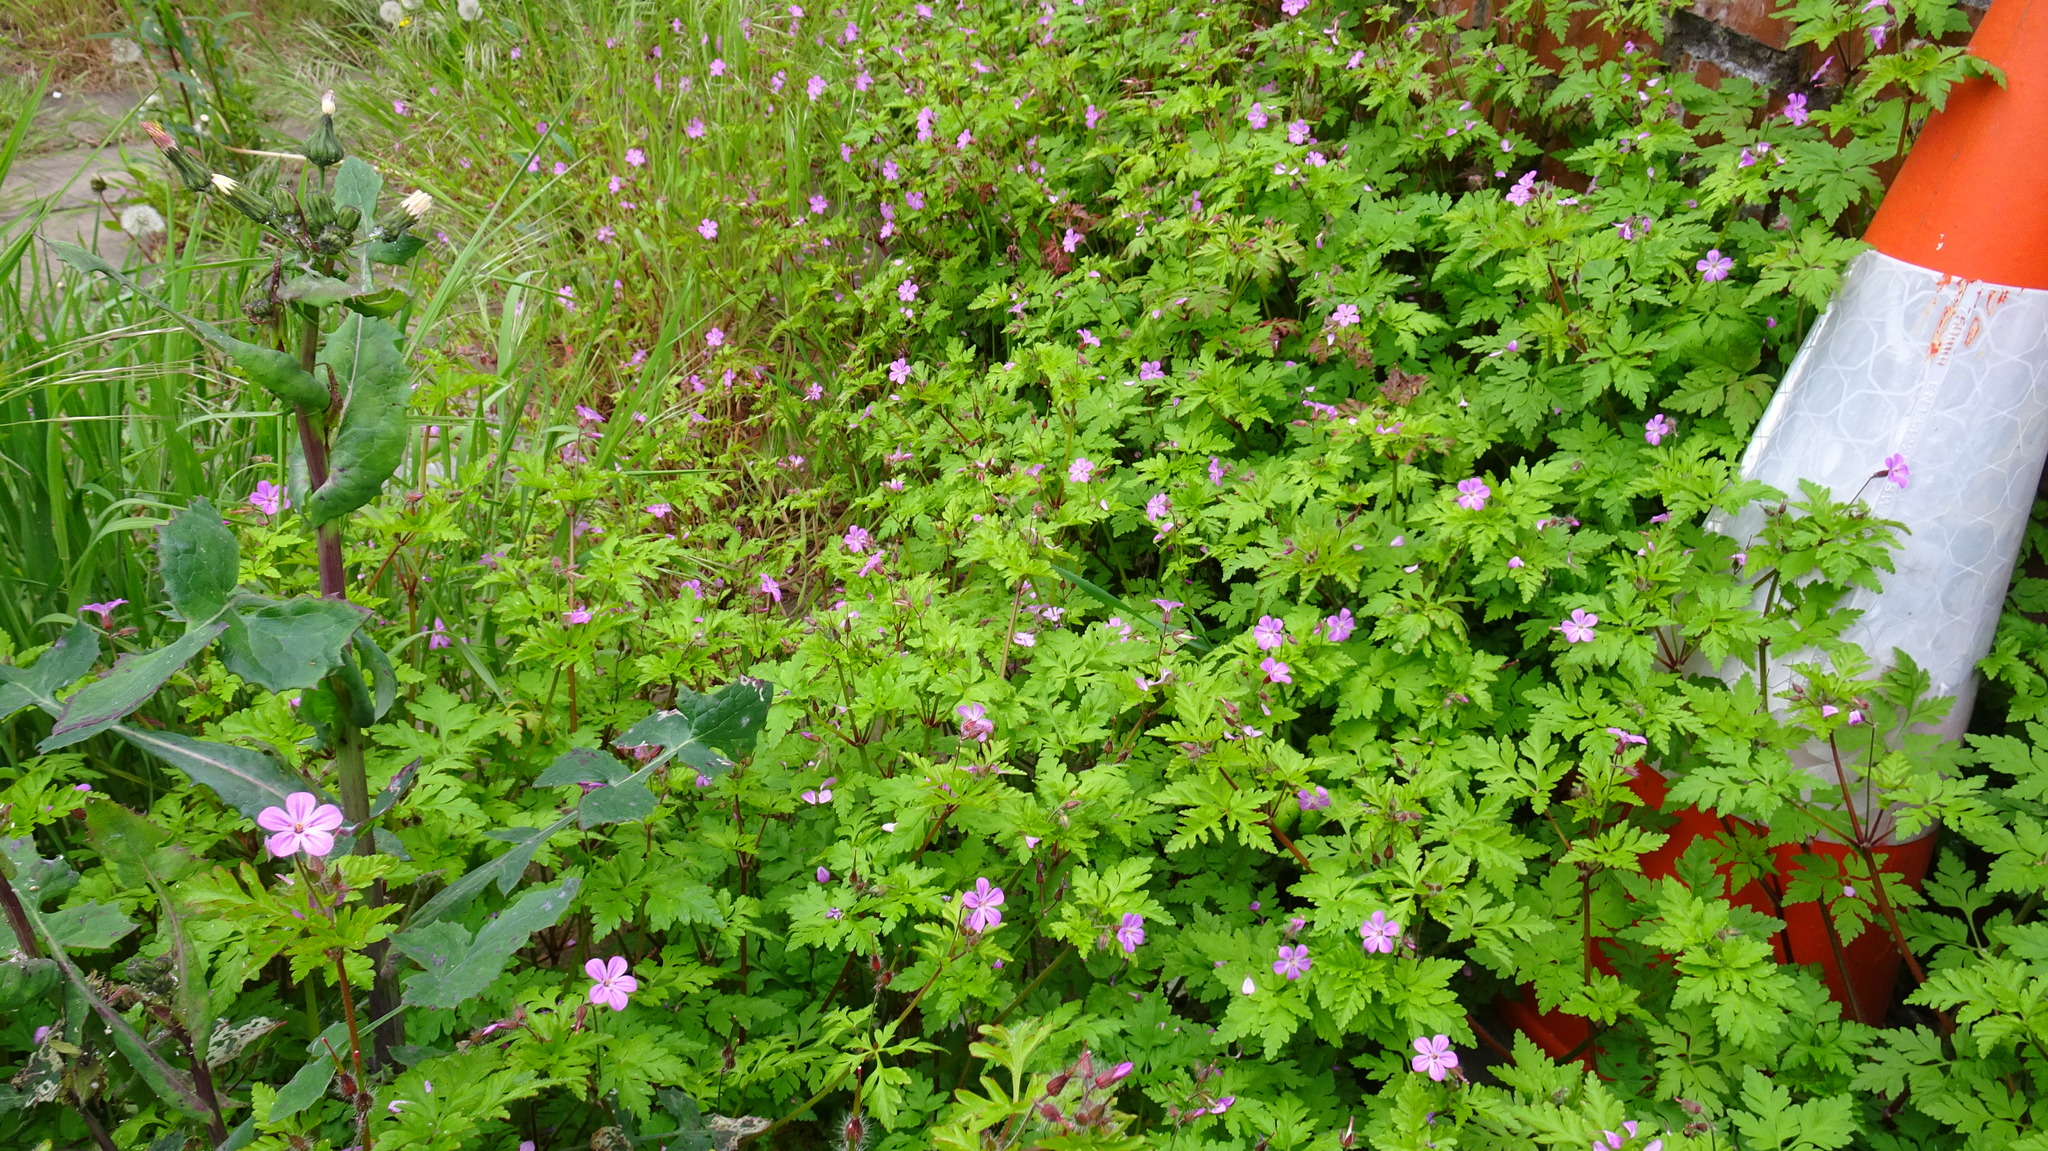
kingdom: Plantae
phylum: Tracheophyta
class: Magnoliopsida
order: Geraniales
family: Geraniaceae
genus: Geranium
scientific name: Geranium robertianum
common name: Herb-robert
